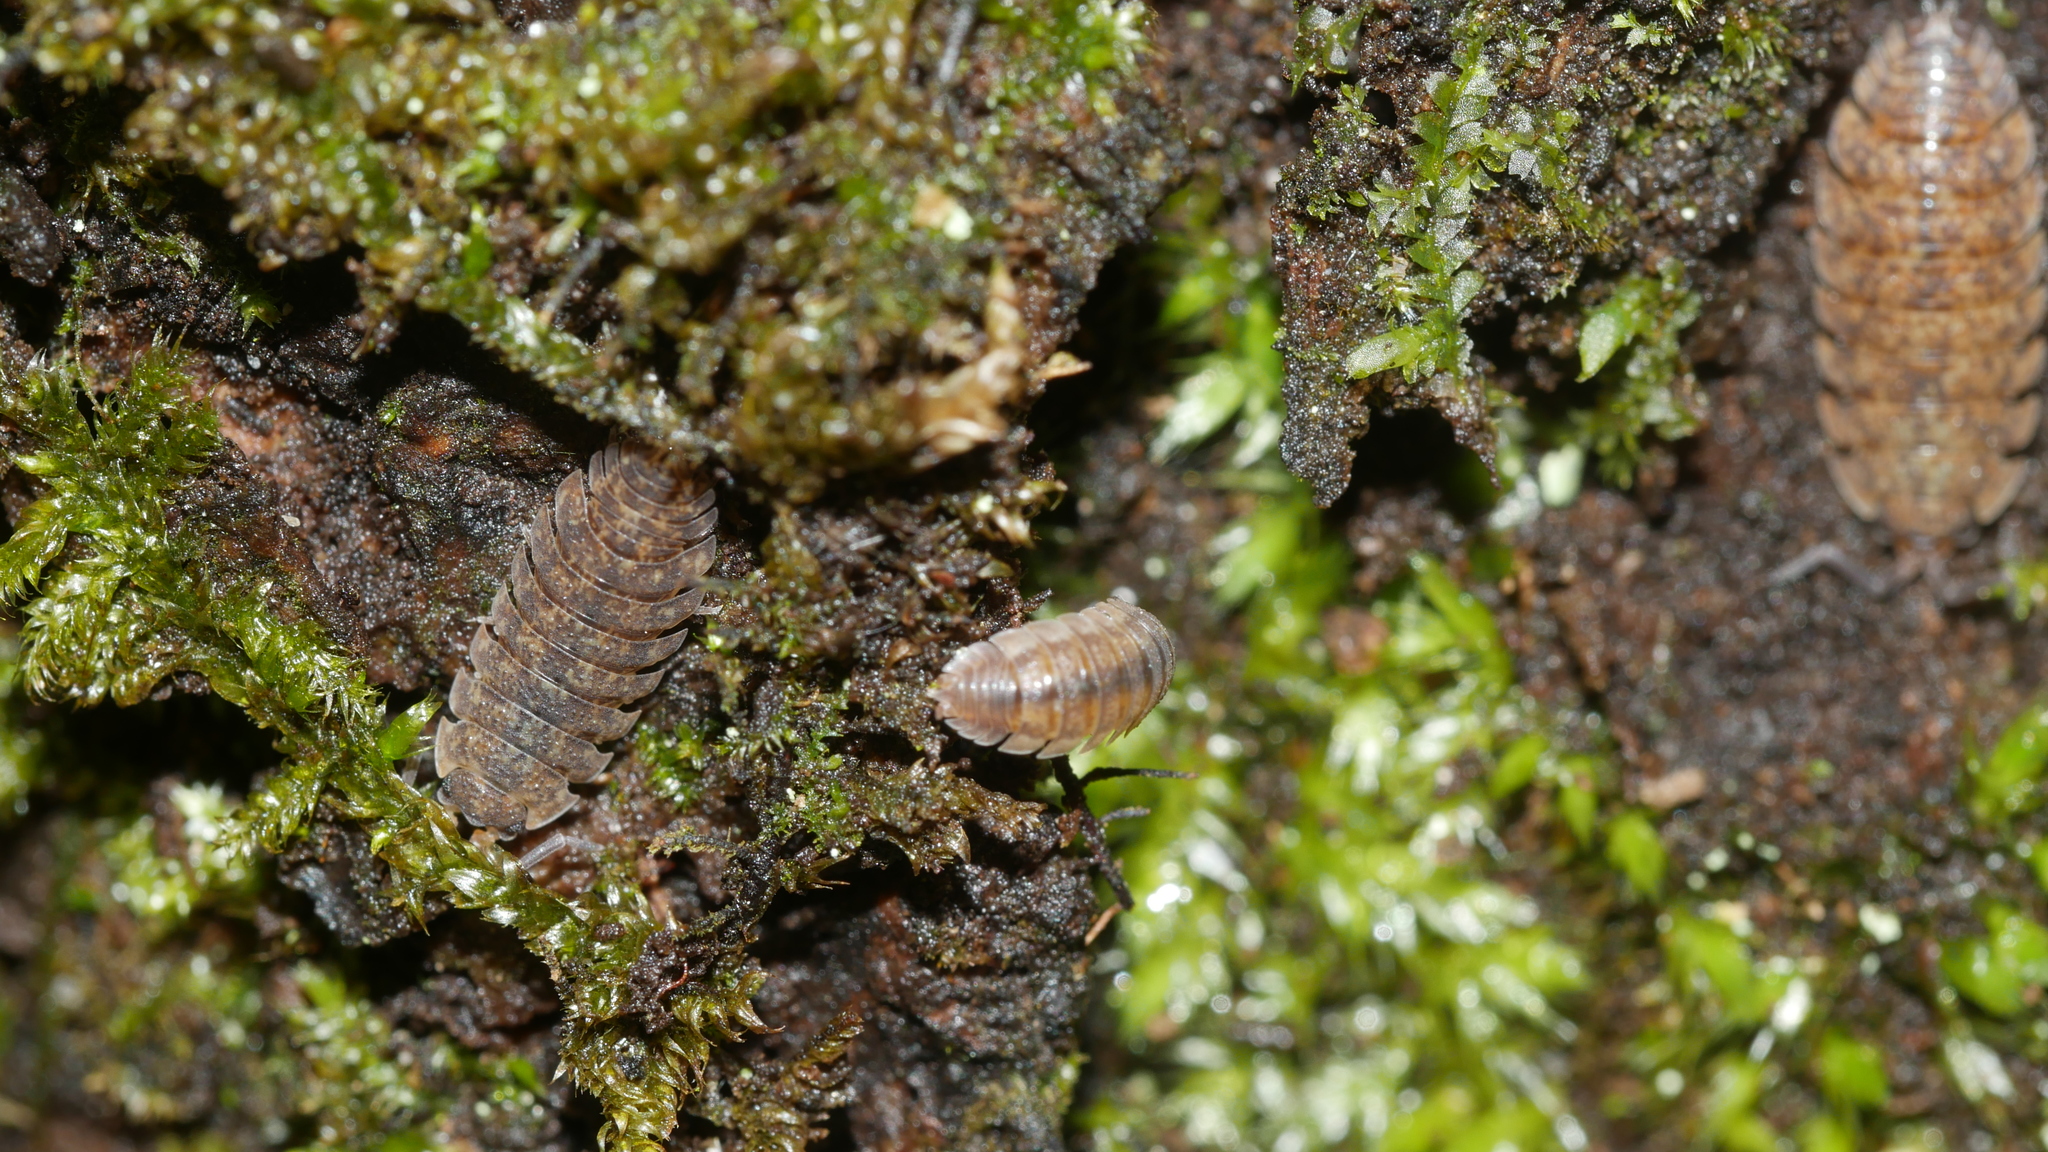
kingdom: Animalia
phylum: Arthropoda
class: Malacostraca
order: Isopoda
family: Porcellionidae
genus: Porcellio
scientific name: Porcellio scaber
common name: Common rough woodlouse
